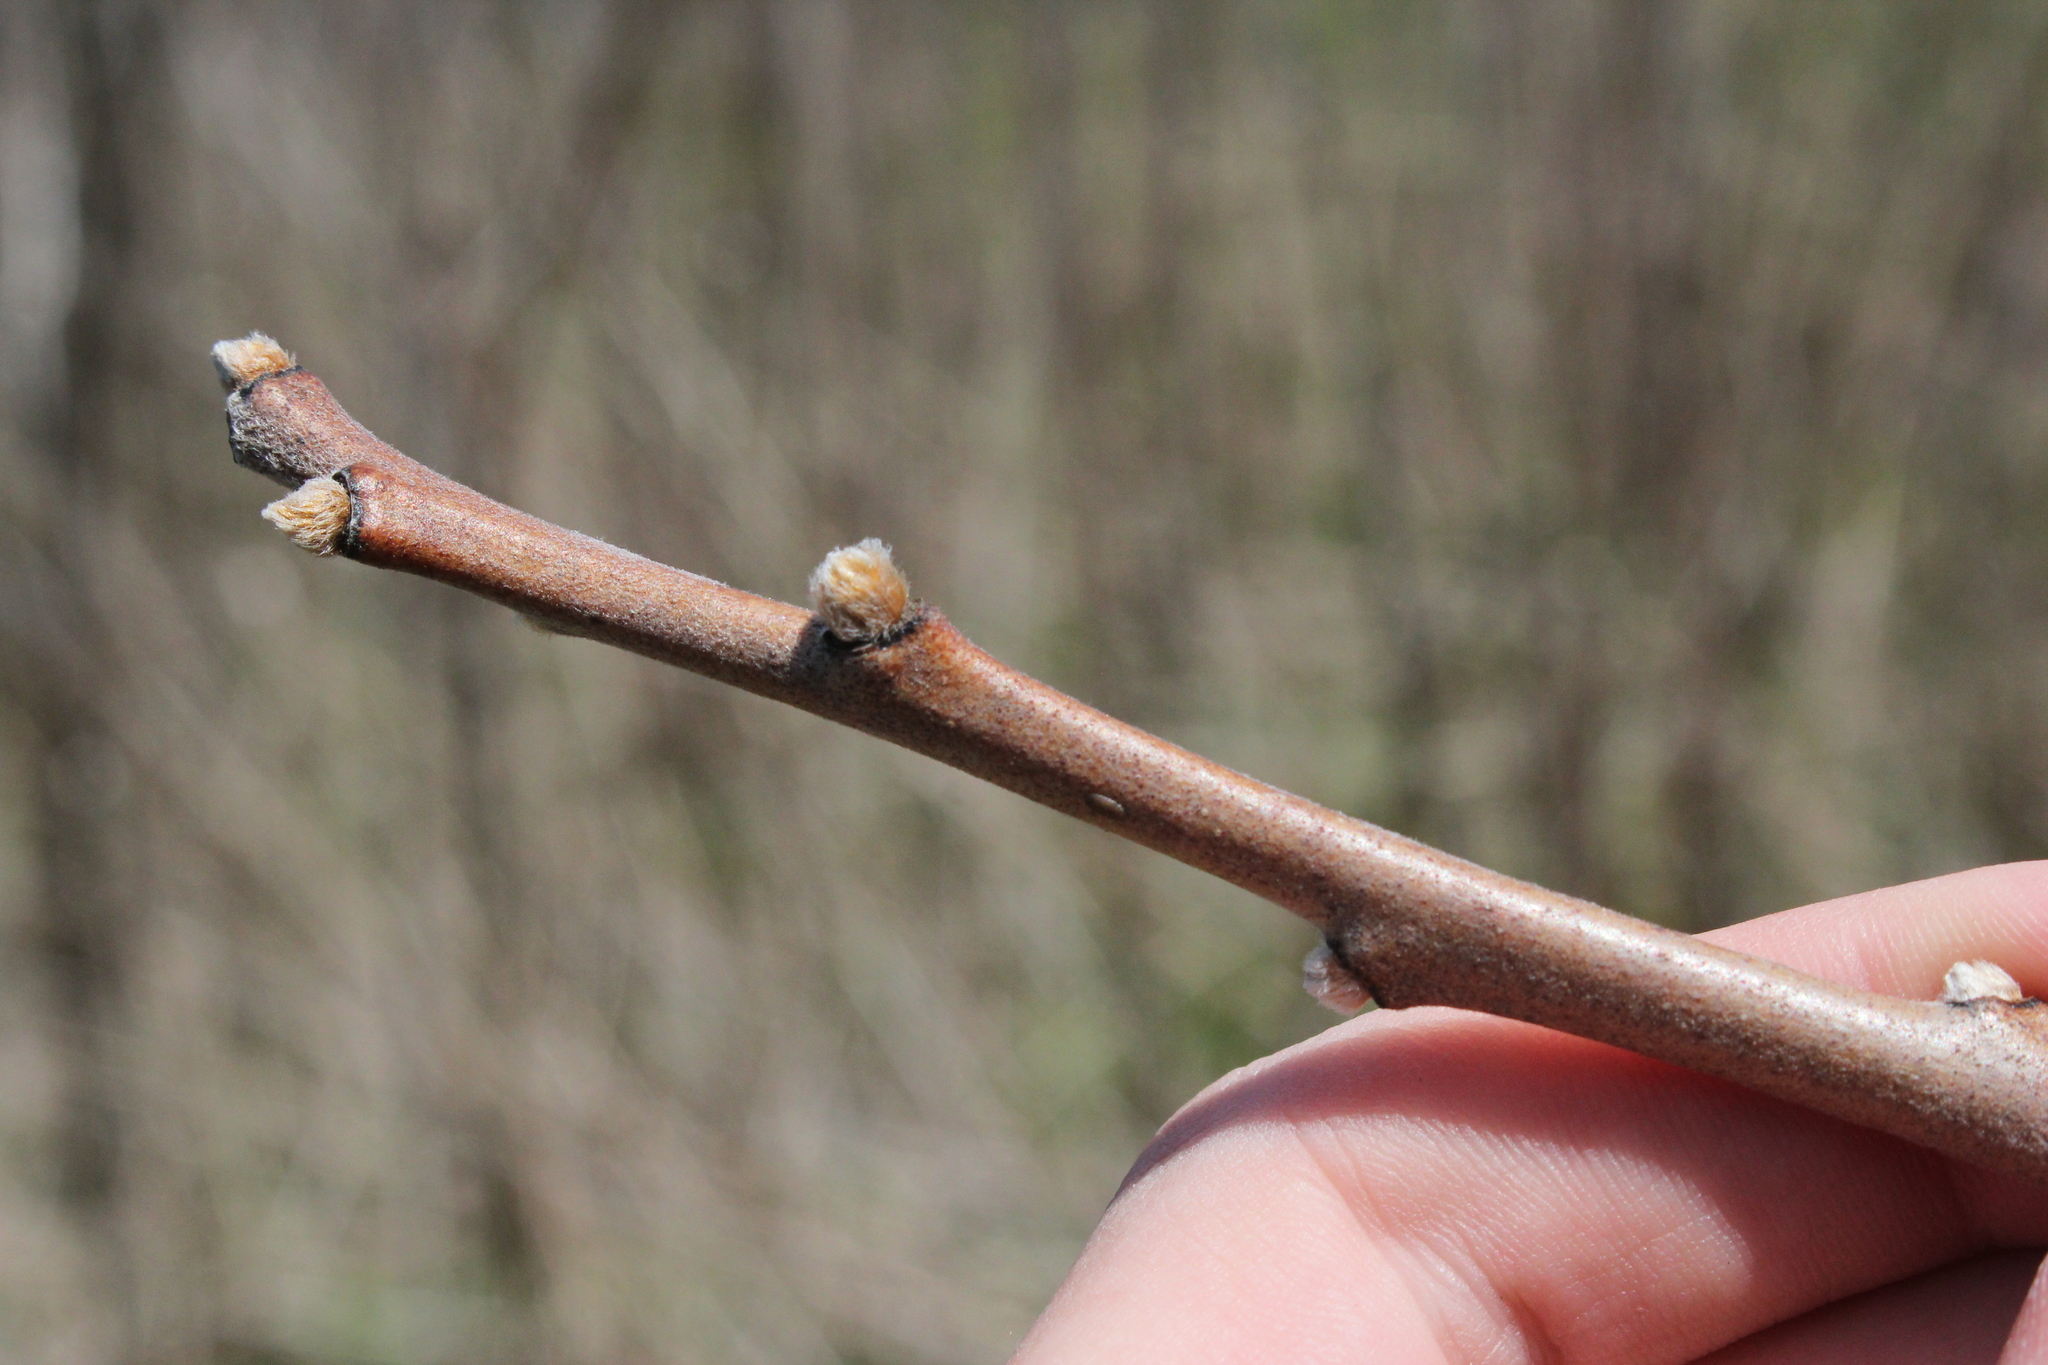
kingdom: Plantae
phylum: Tracheophyta
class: Magnoliopsida
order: Sapindales
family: Anacardiaceae
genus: Rhus
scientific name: Rhus glabra
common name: Scarlet sumac
